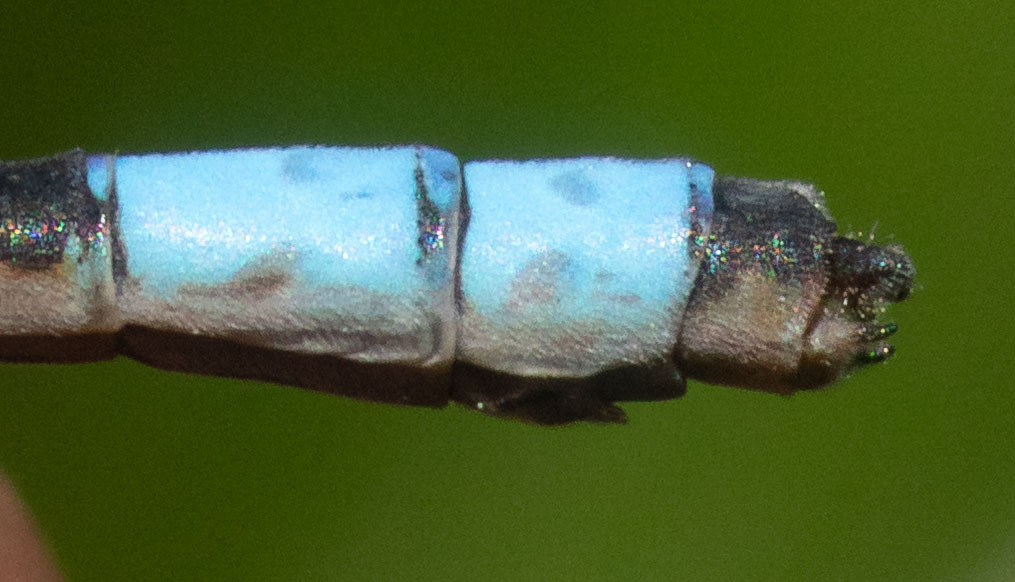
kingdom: Animalia
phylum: Arthropoda
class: Insecta
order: Odonata
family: Coenagrionidae
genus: Enallagma
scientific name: Enallagma praevarum
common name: Arroyo bluet
